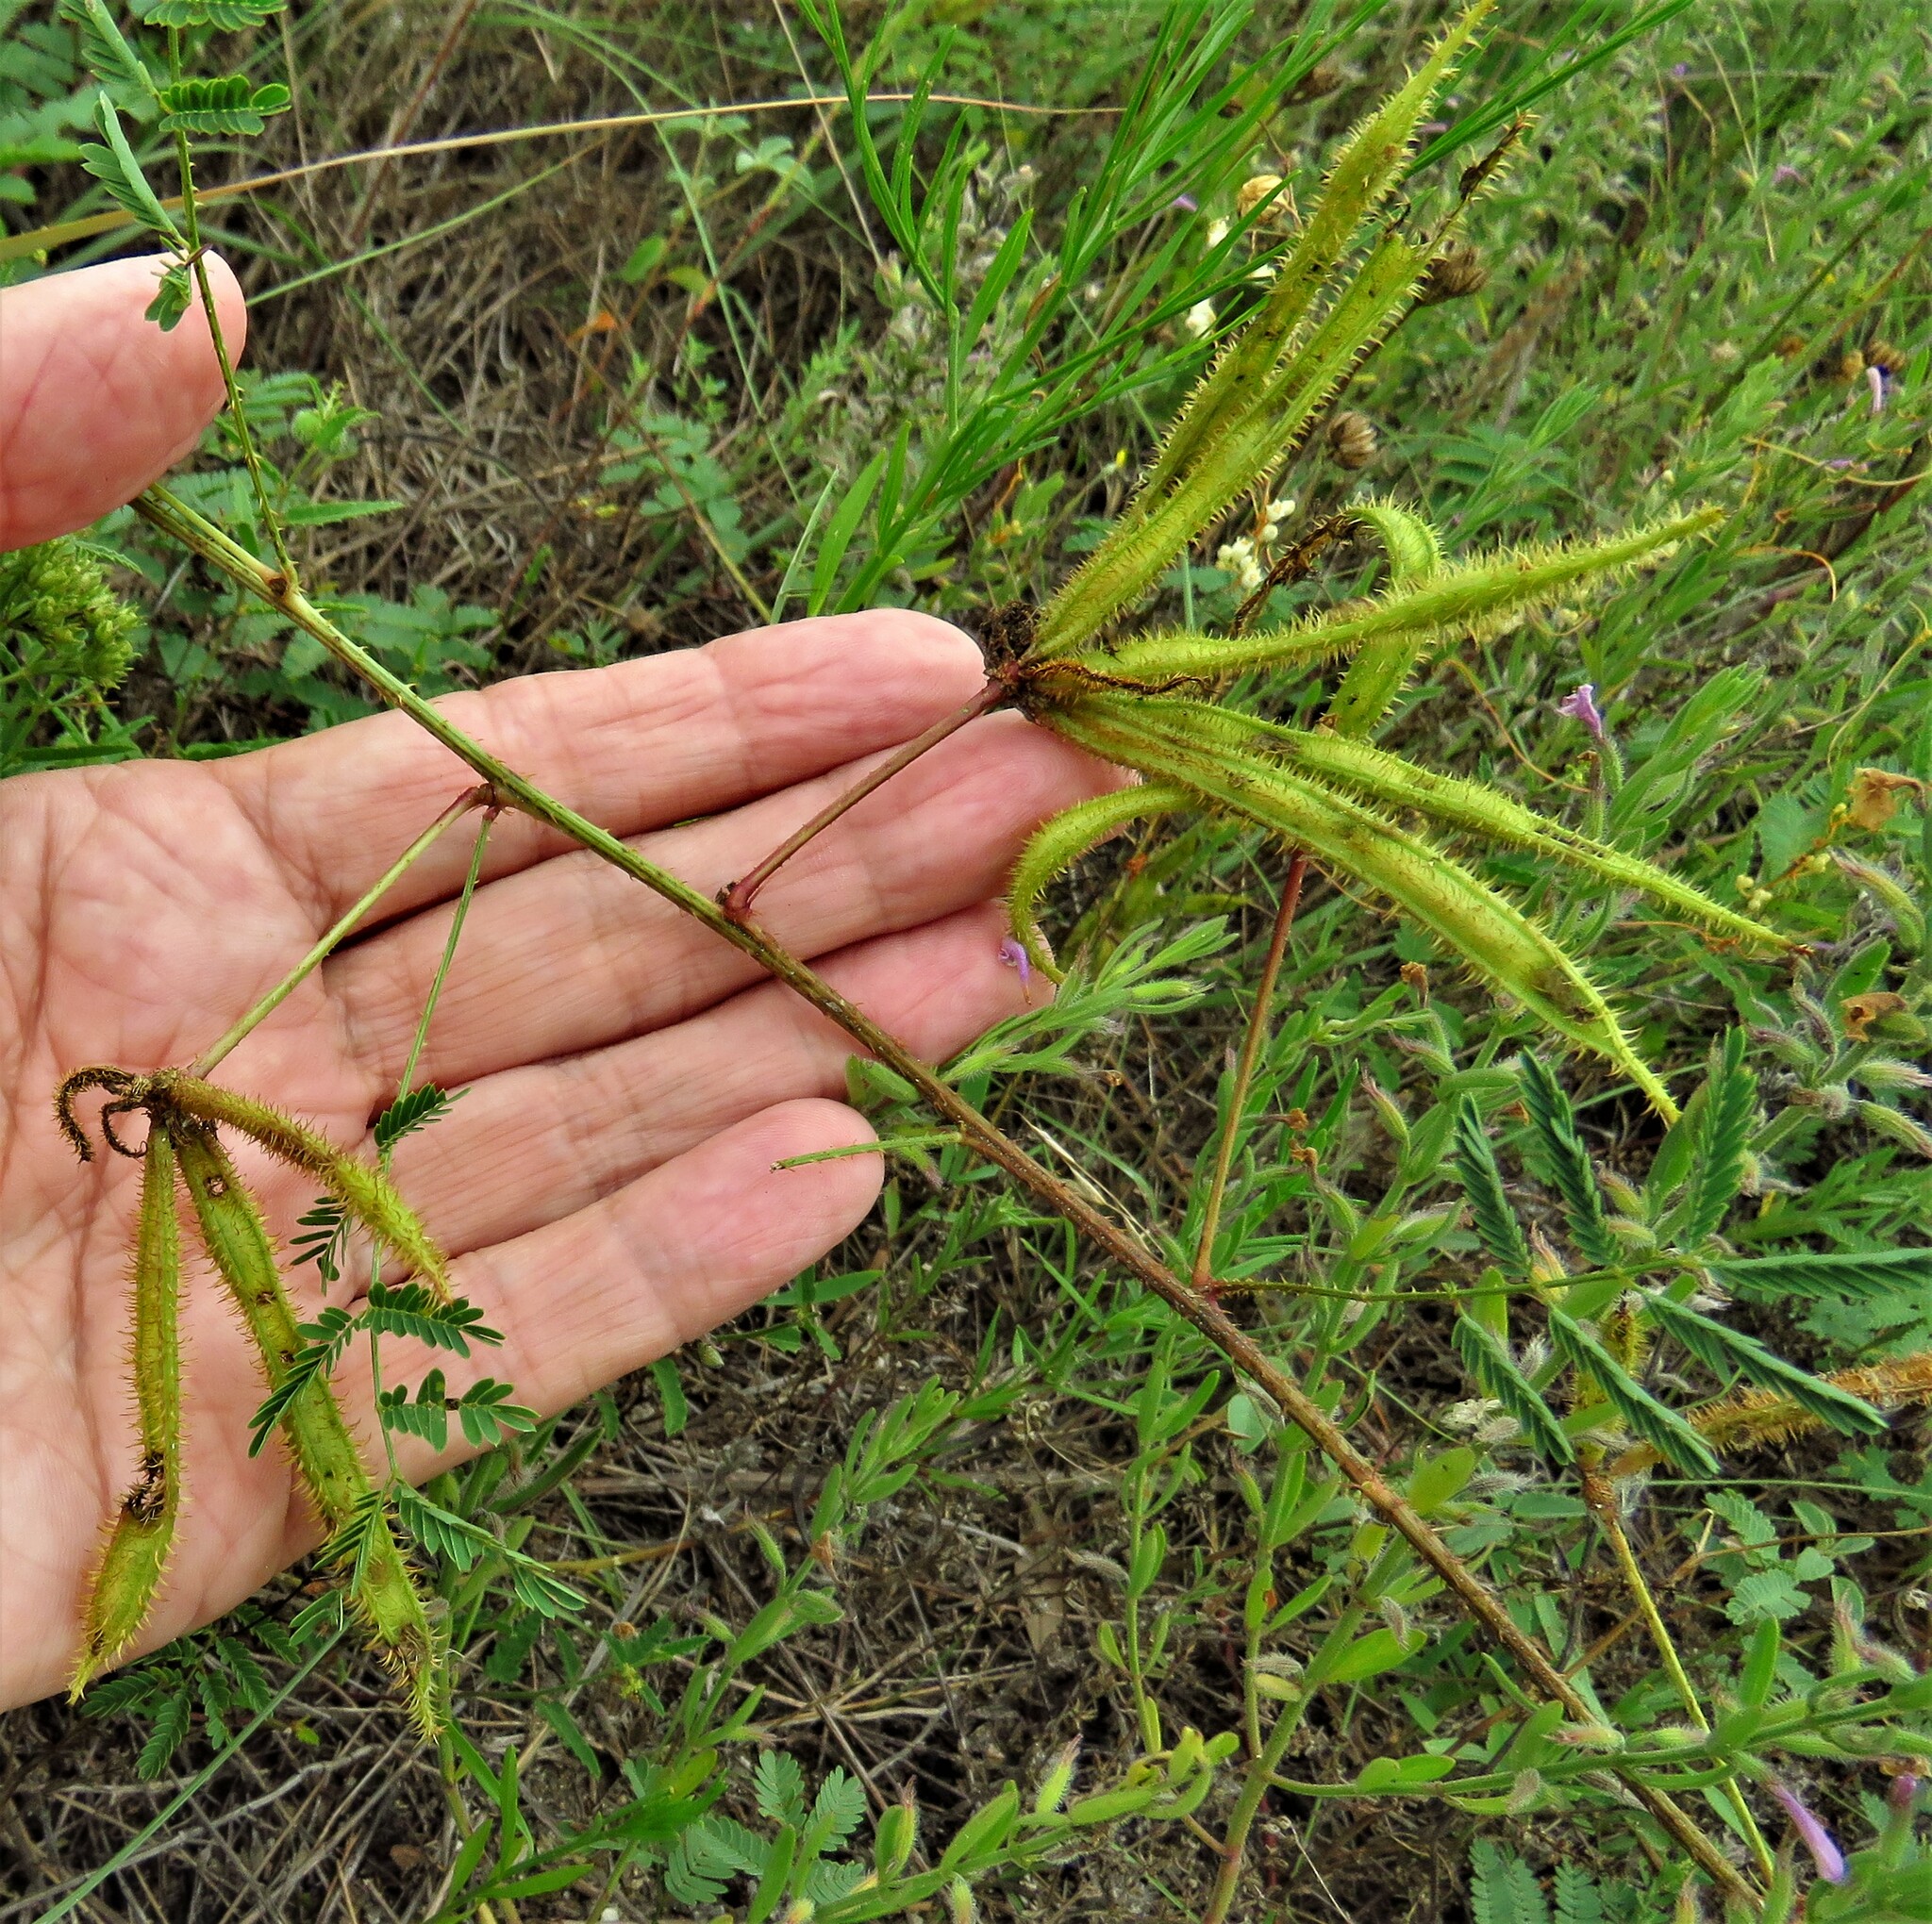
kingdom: Plantae
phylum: Tracheophyta
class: Magnoliopsida
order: Fabales
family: Fabaceae
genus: Mimosa
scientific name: Mimosa quadrivalvis
